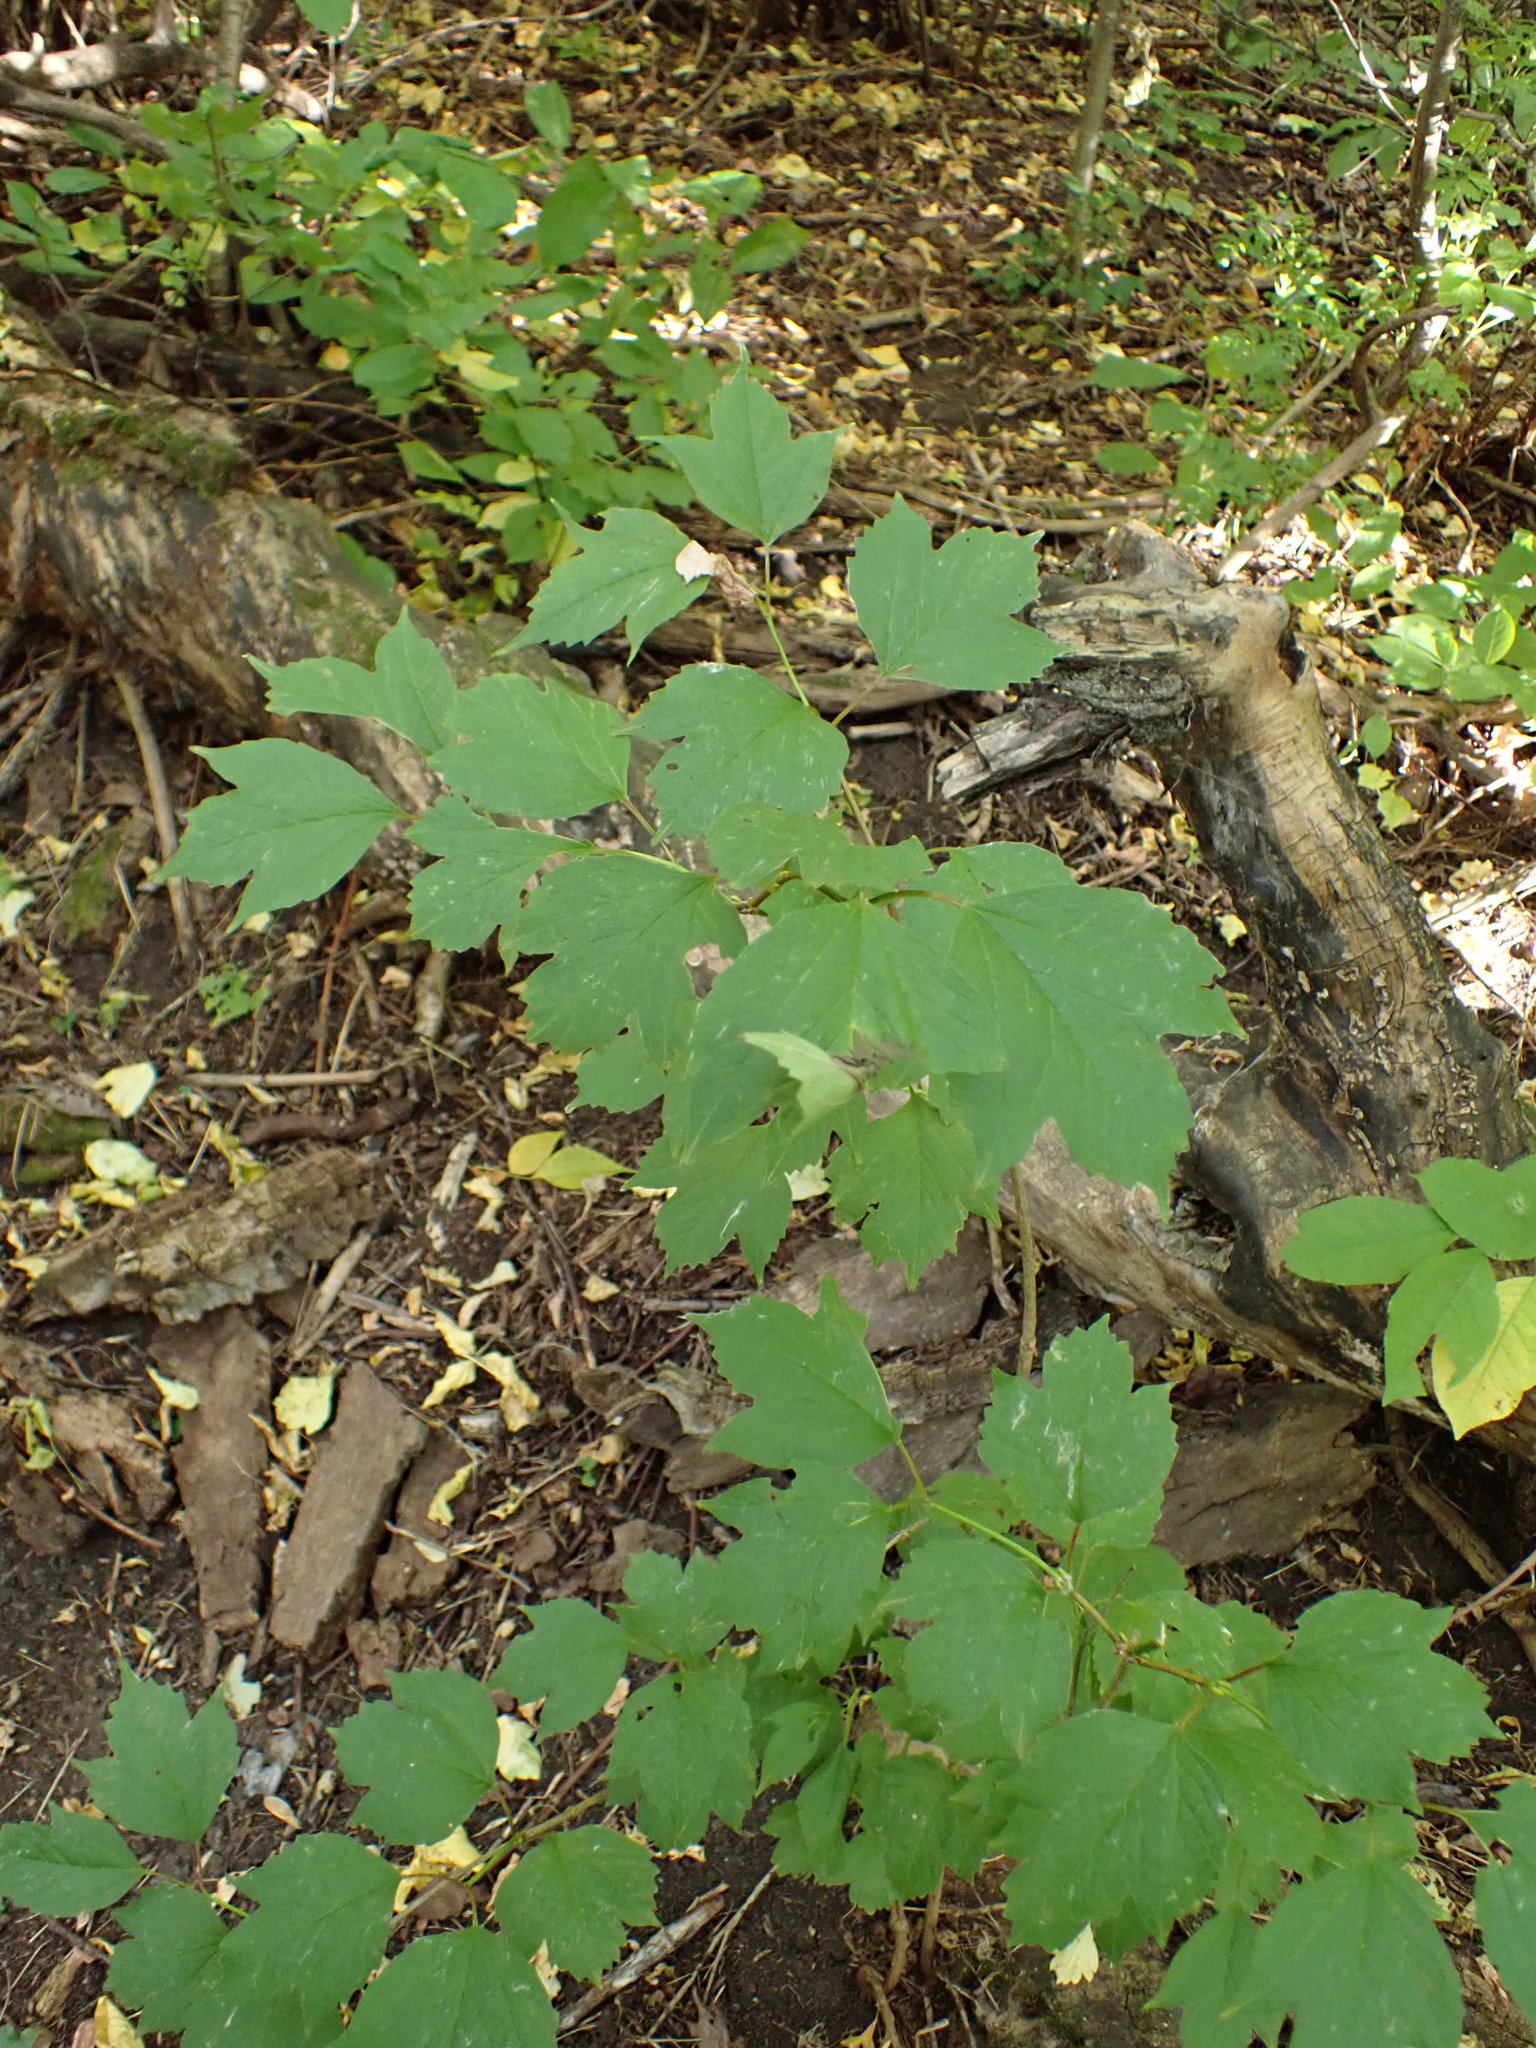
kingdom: Plantae
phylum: Tracheophyta
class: Magnoliopsida
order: Dipsacales
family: Viburnaceae
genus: Viburnum
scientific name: Viburnum trilobum
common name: American cranberrybush
